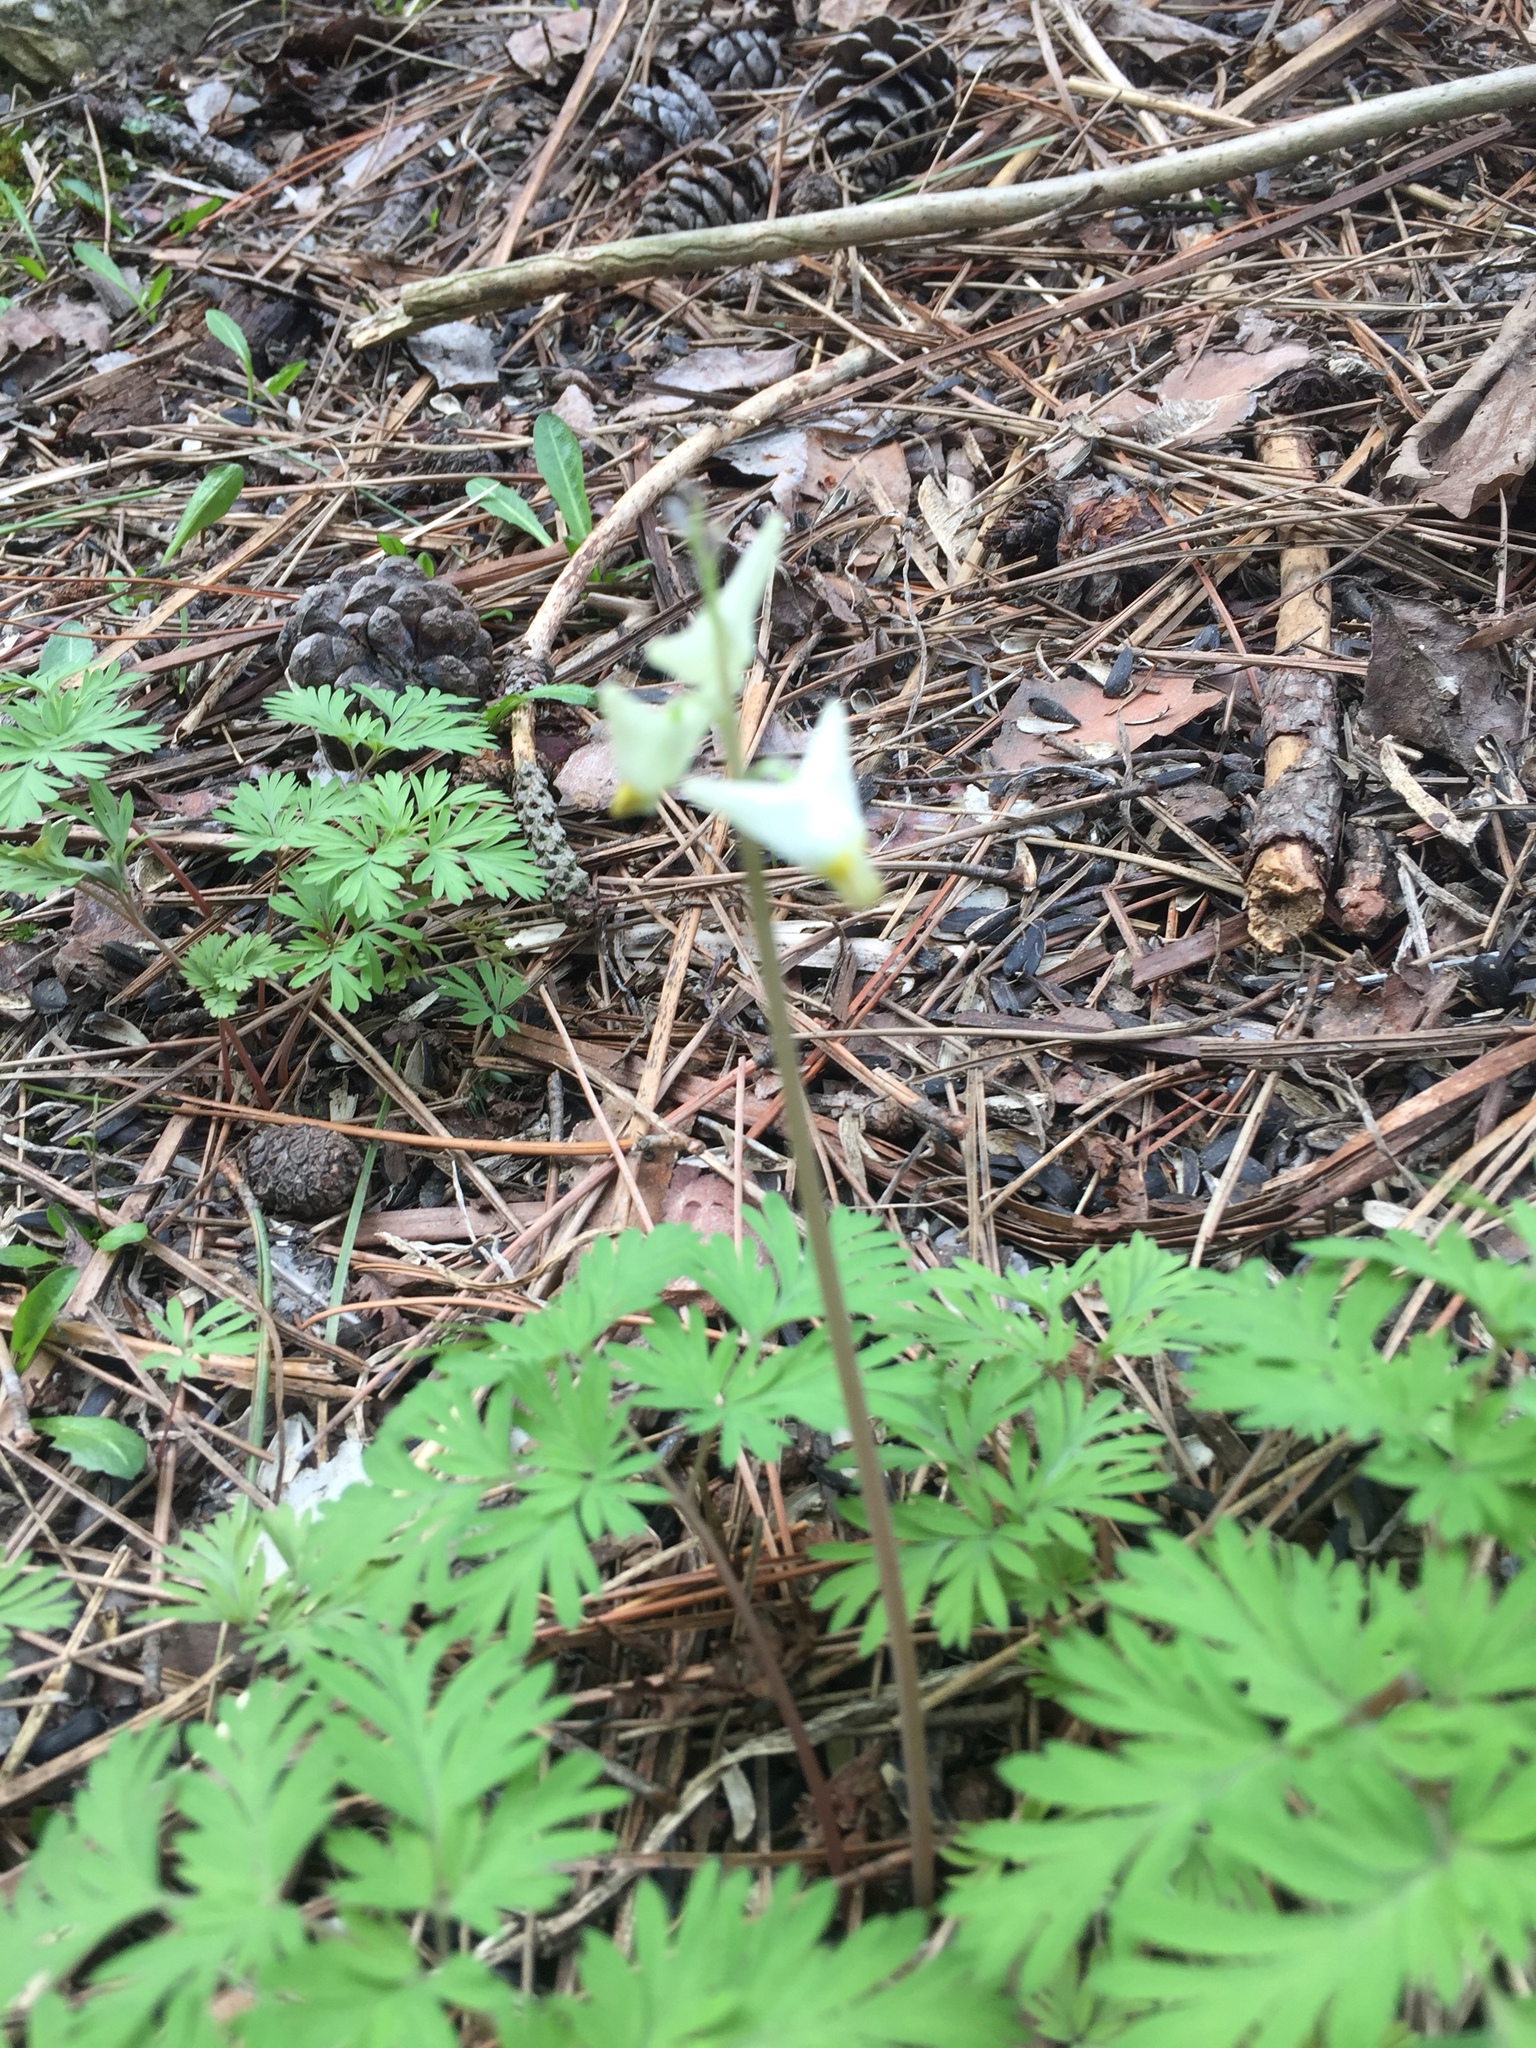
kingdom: Plantae
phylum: Tracheophyta
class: Magnoliopsida
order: Ranunculales
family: Papaveraceae
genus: Dicentra
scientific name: Dicentra cucullaria
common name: Dutchman's breeches
